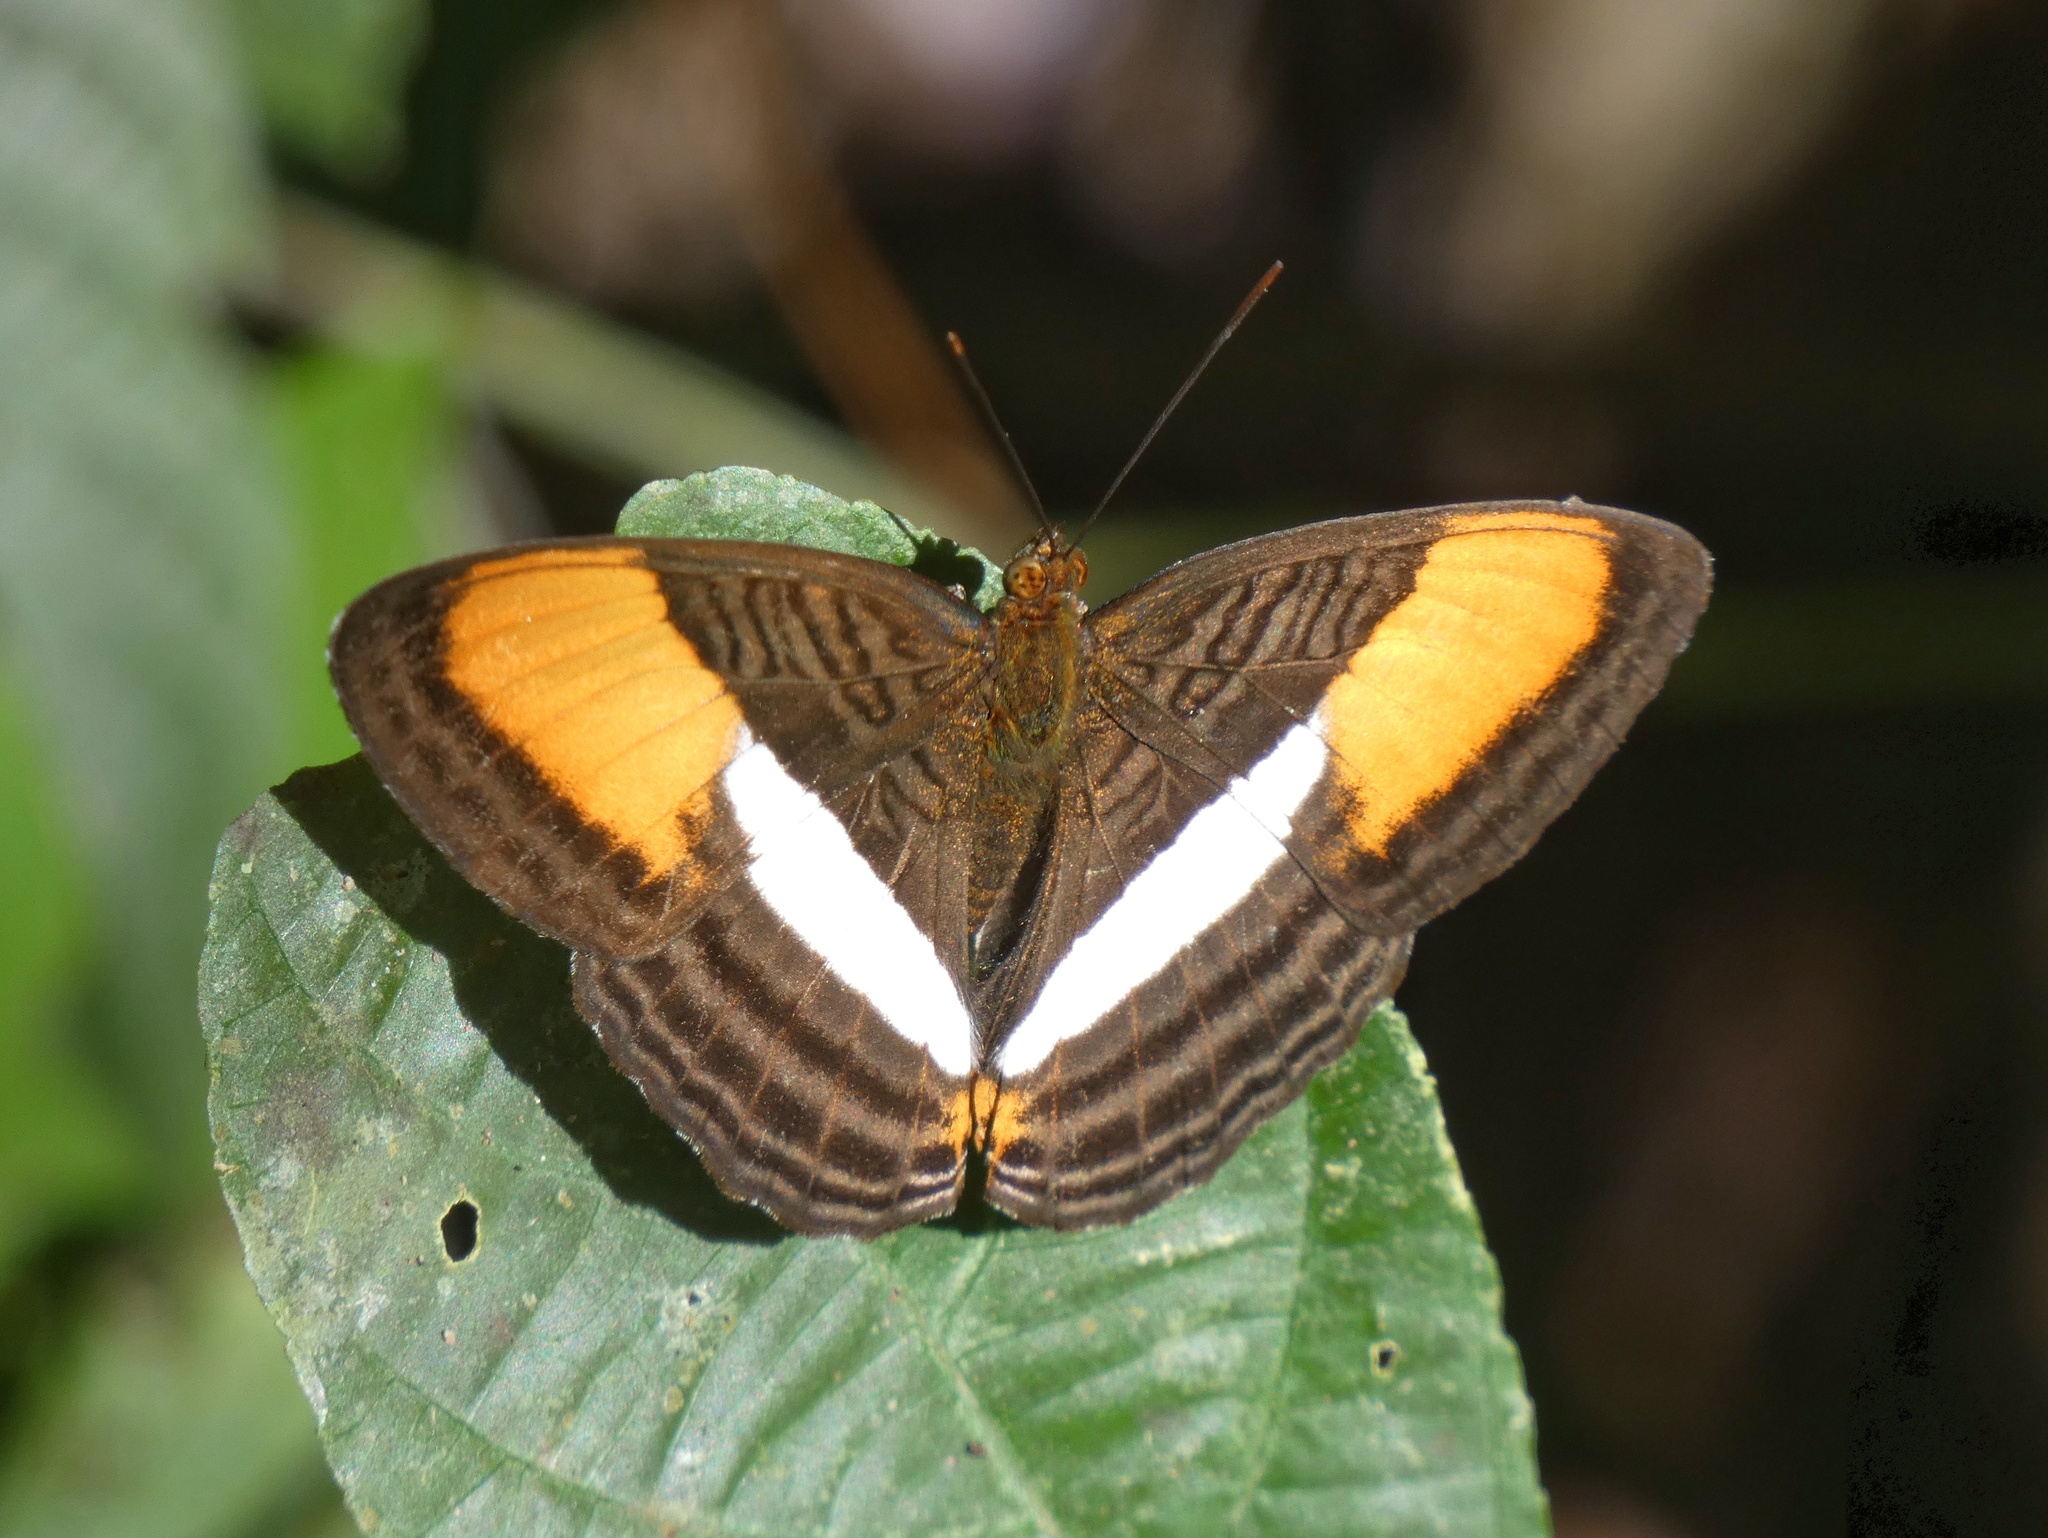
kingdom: Animalia
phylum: Arthropoda
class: Insecta
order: Lepidoptera
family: Nymphalidae
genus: Limenitis
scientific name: Limenitis cytherea
